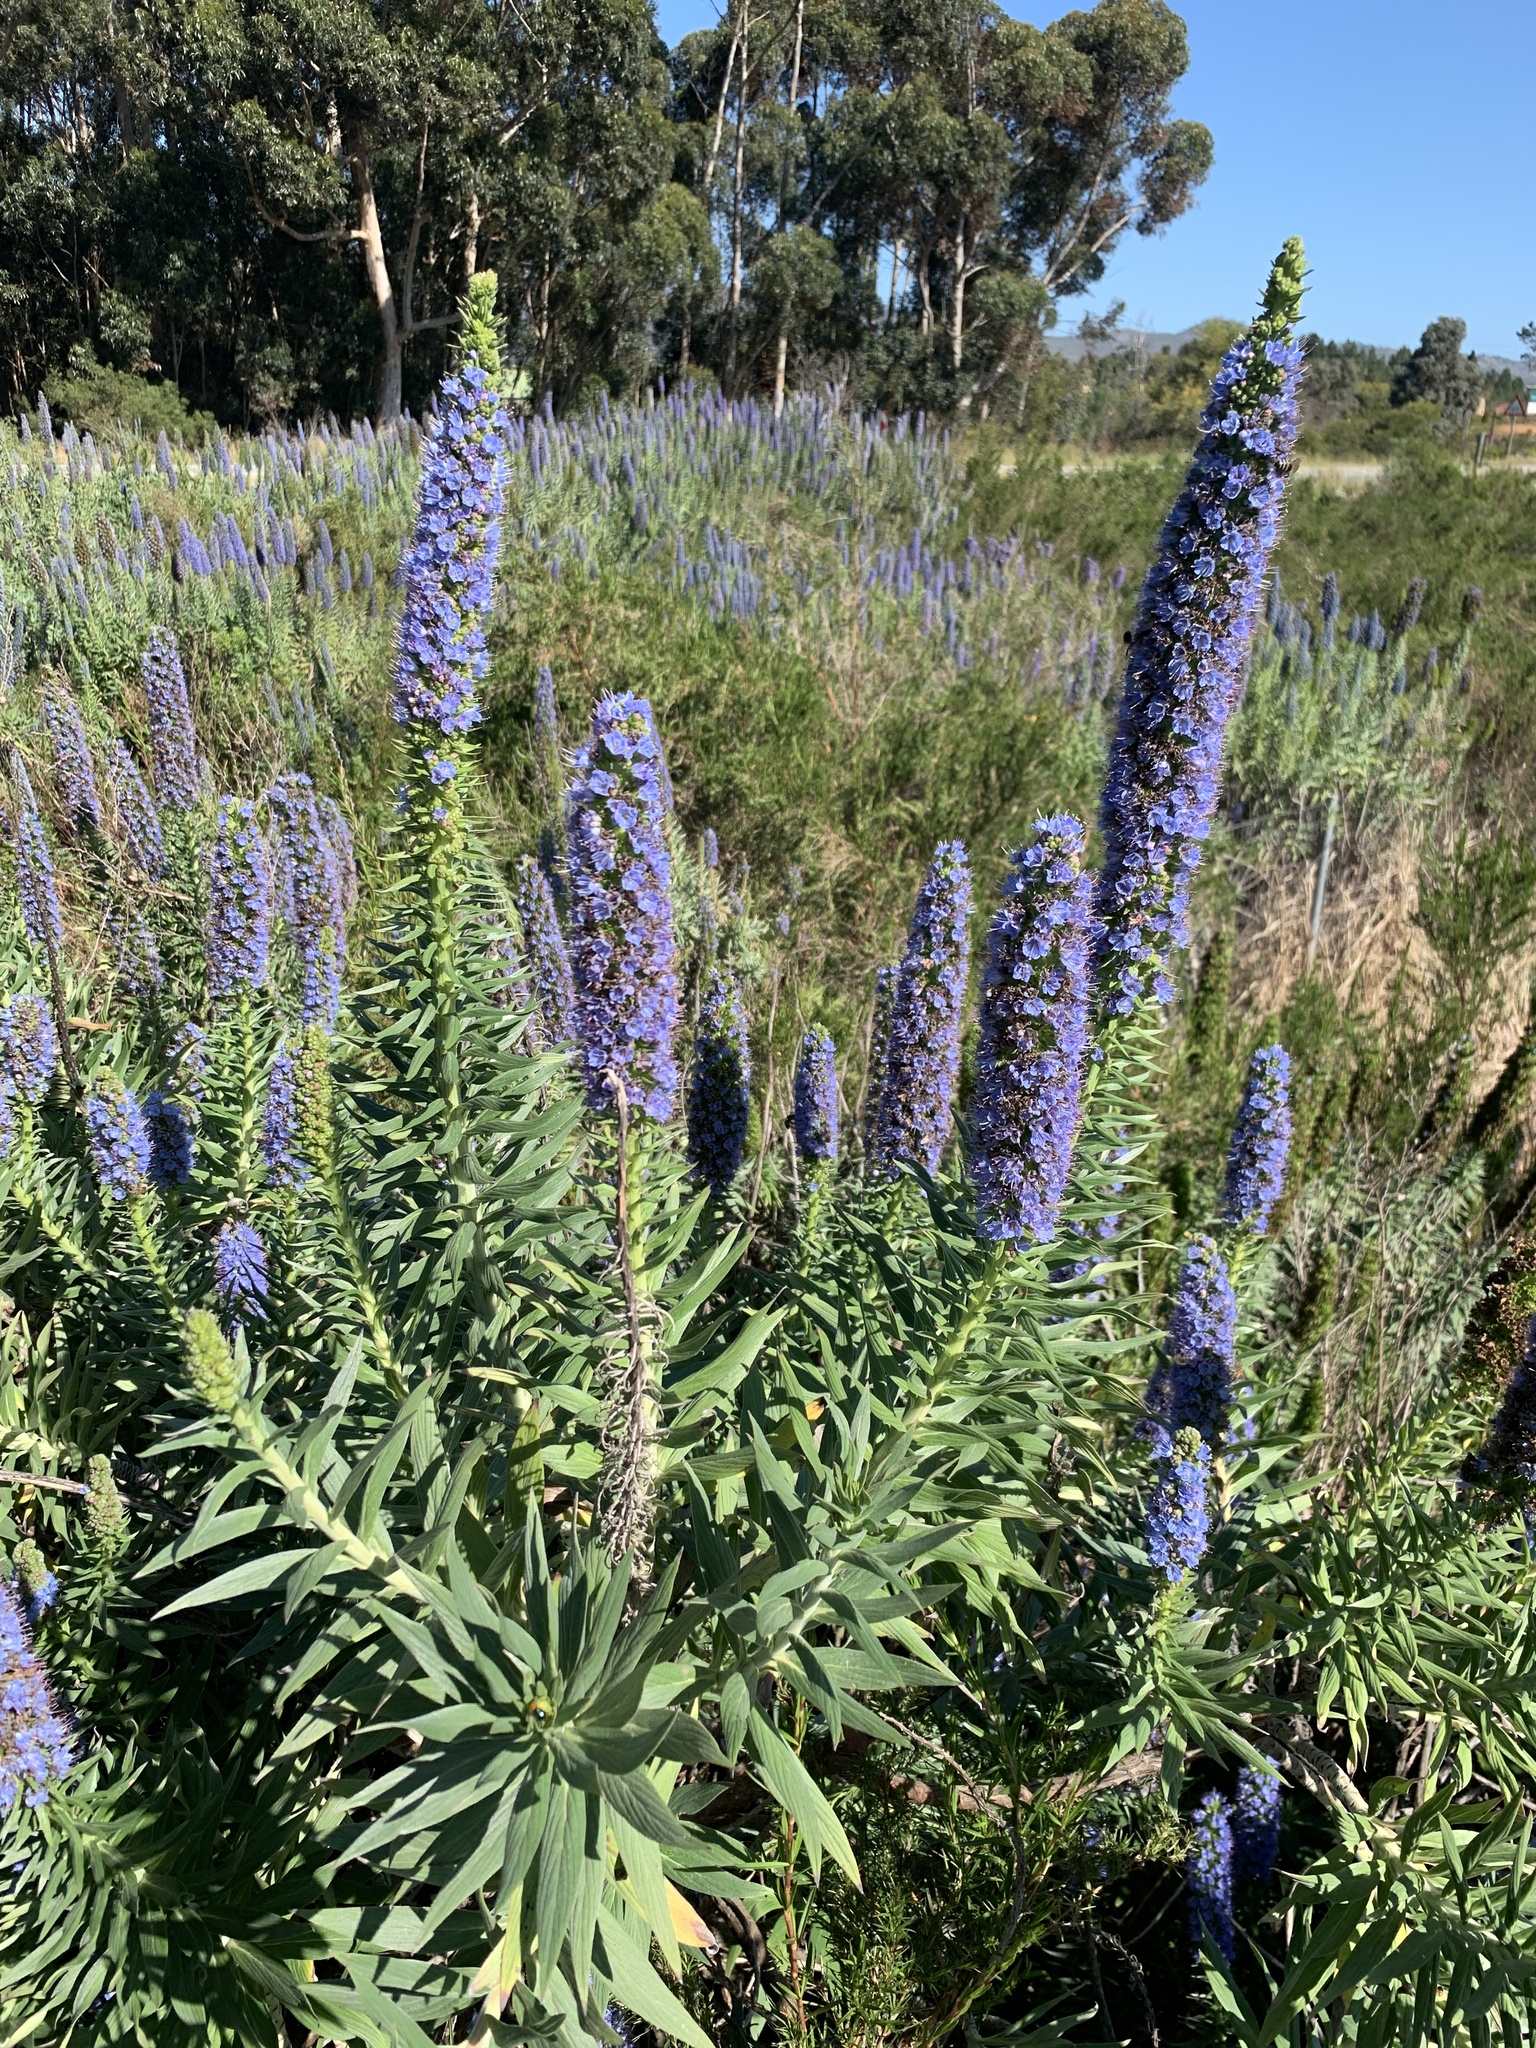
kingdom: Plantae
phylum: Tracheophyta
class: Magnoliopsida
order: Boraginales
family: Boraginaceae
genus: Echium
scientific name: Echium candicans
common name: Pride of madeira
